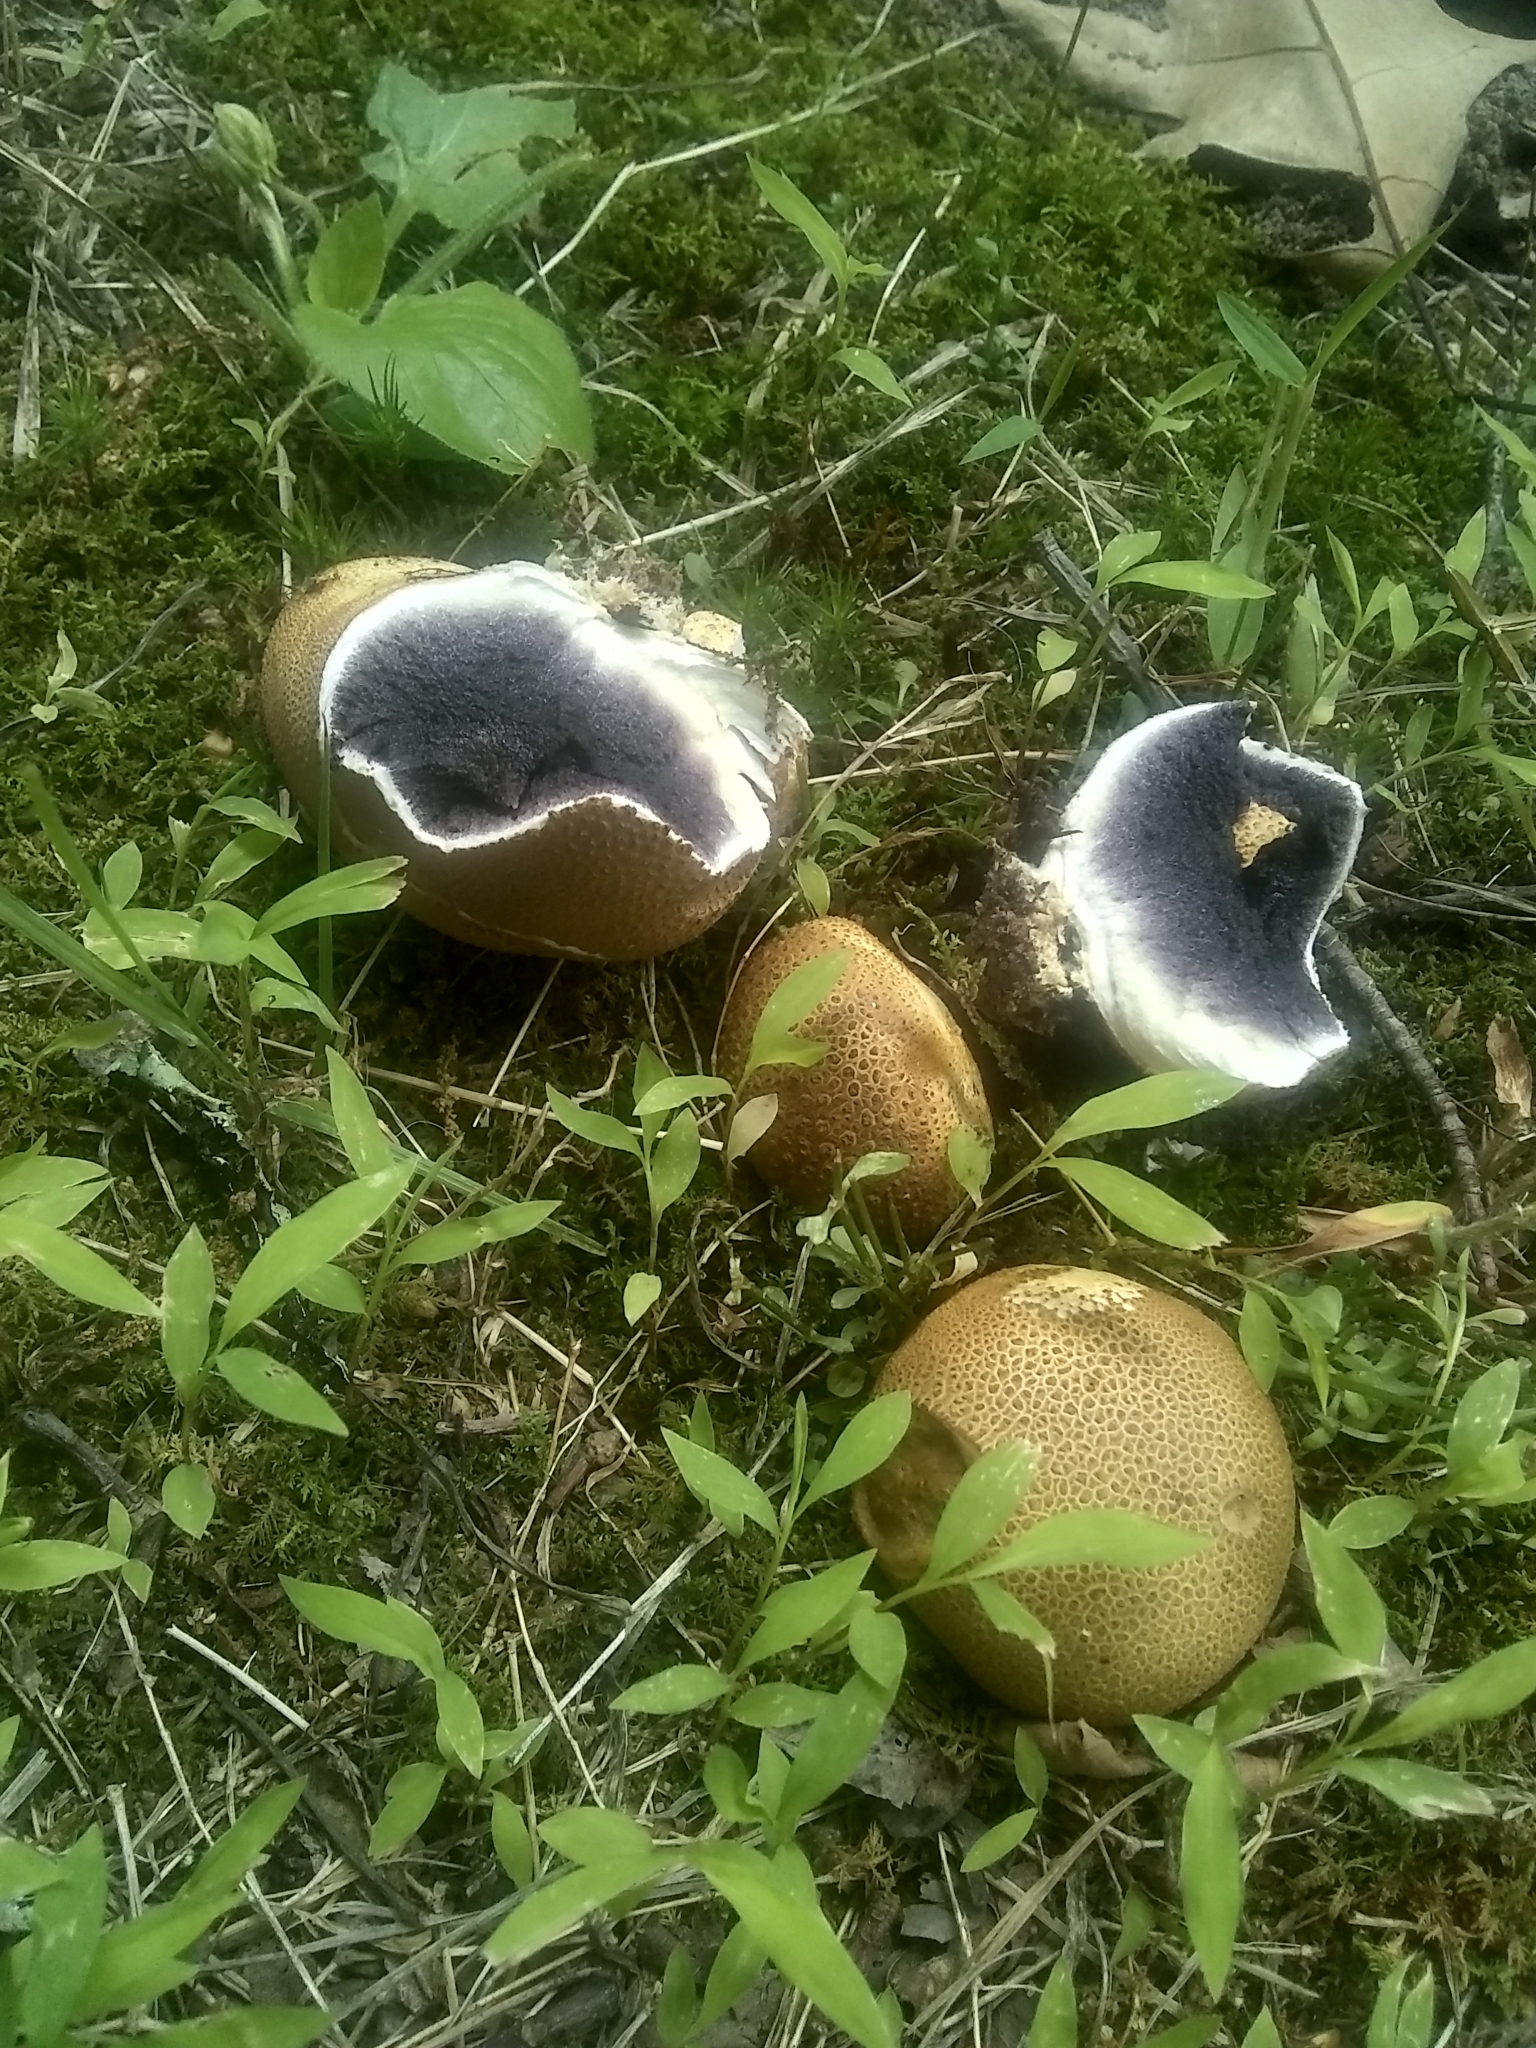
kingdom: Fungi
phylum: Basidiomycota
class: Agaricomycetes
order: Boletales
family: Sclerodermataceae
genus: Scleroderma
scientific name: Scleroderma citrinum
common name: Common earthball
